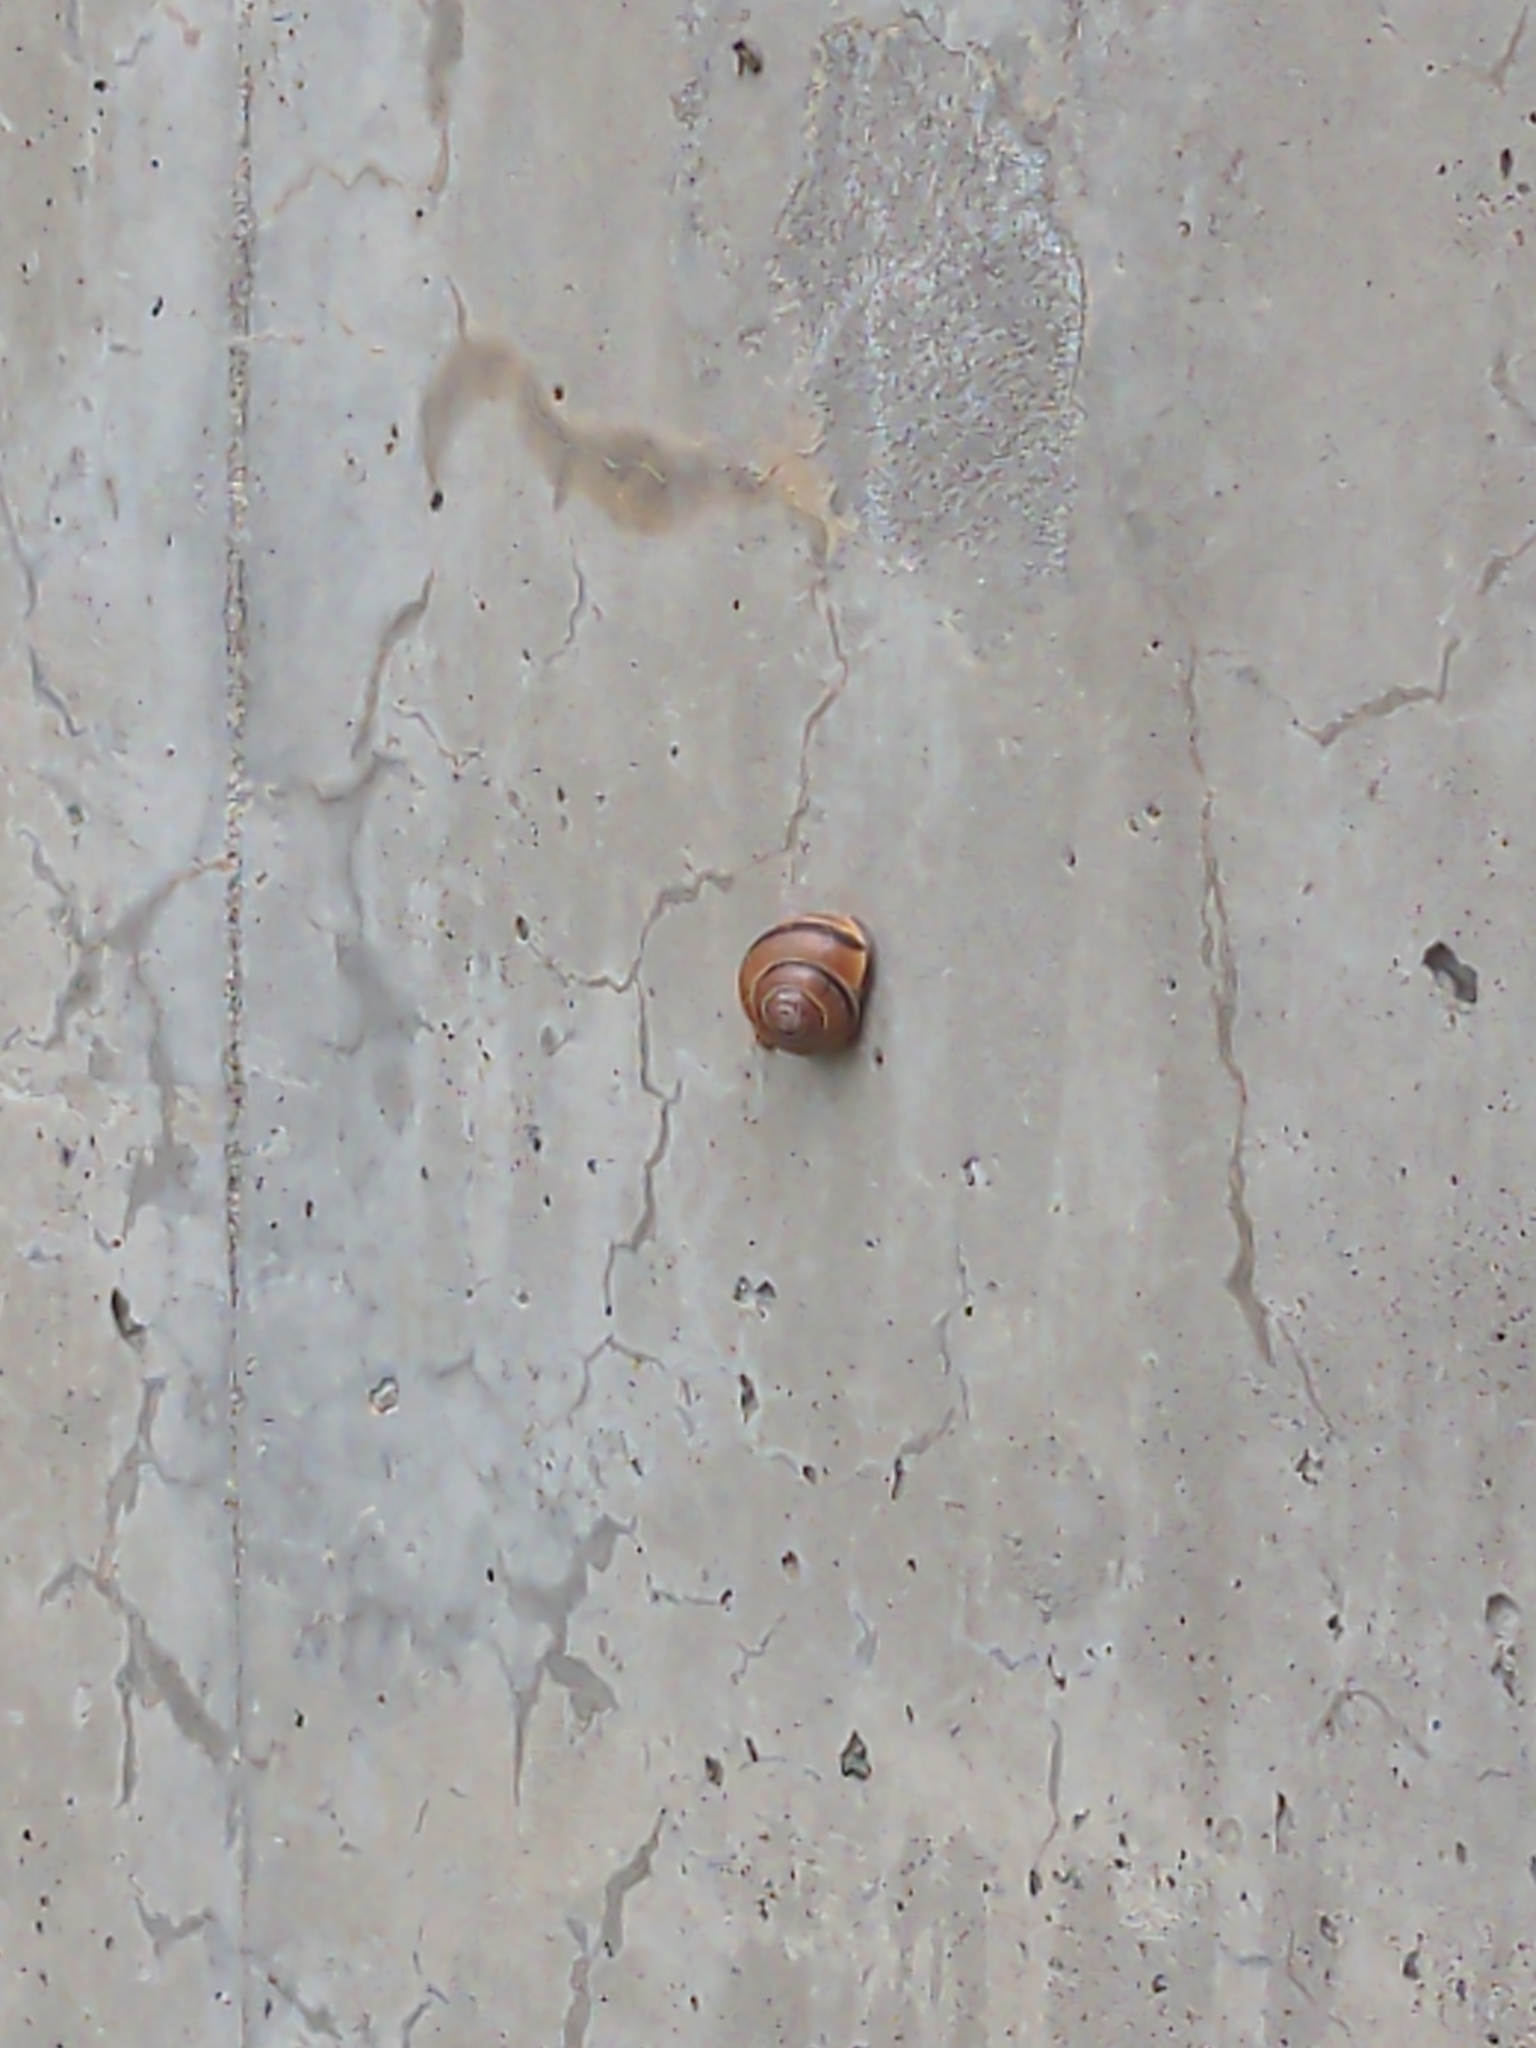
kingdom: Animalia
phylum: Mollusca
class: Gastropoda
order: Stylommatophora
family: Helicidae
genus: Cepaea
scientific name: Cepaea nemoralis
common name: Grovesnail
